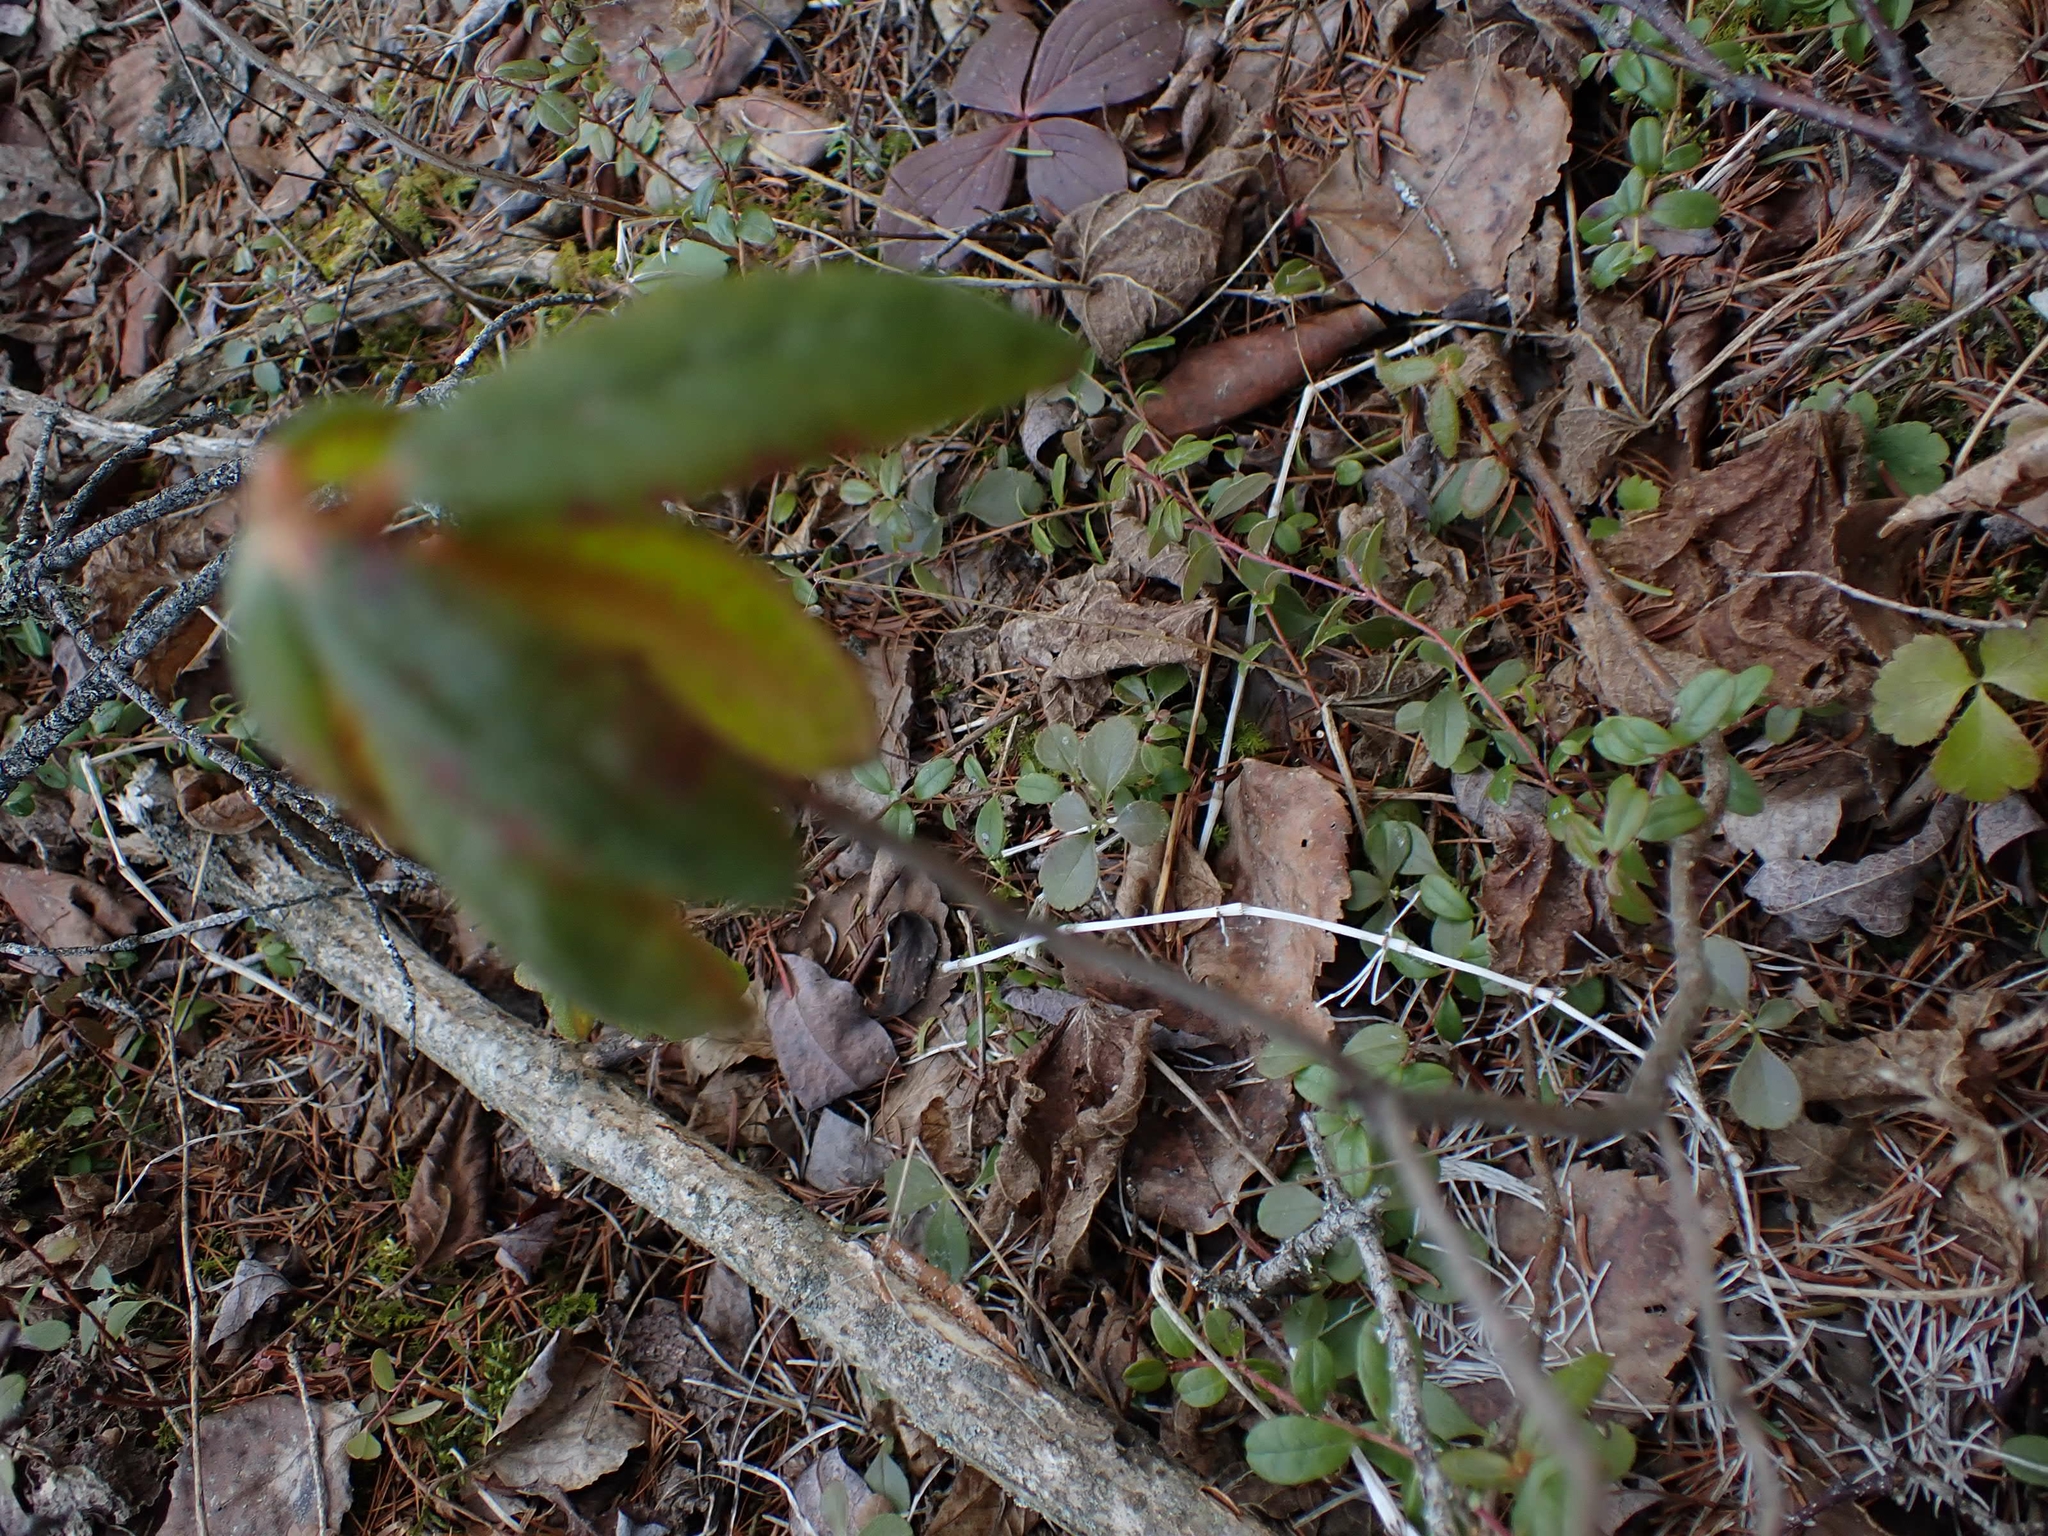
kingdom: Plantae
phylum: Tracheophyta
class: Magnoliopsida
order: Ericales
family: Ericaceae
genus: Rhododendron
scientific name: Rhododendron groenlandicum
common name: Bog labrador tea
